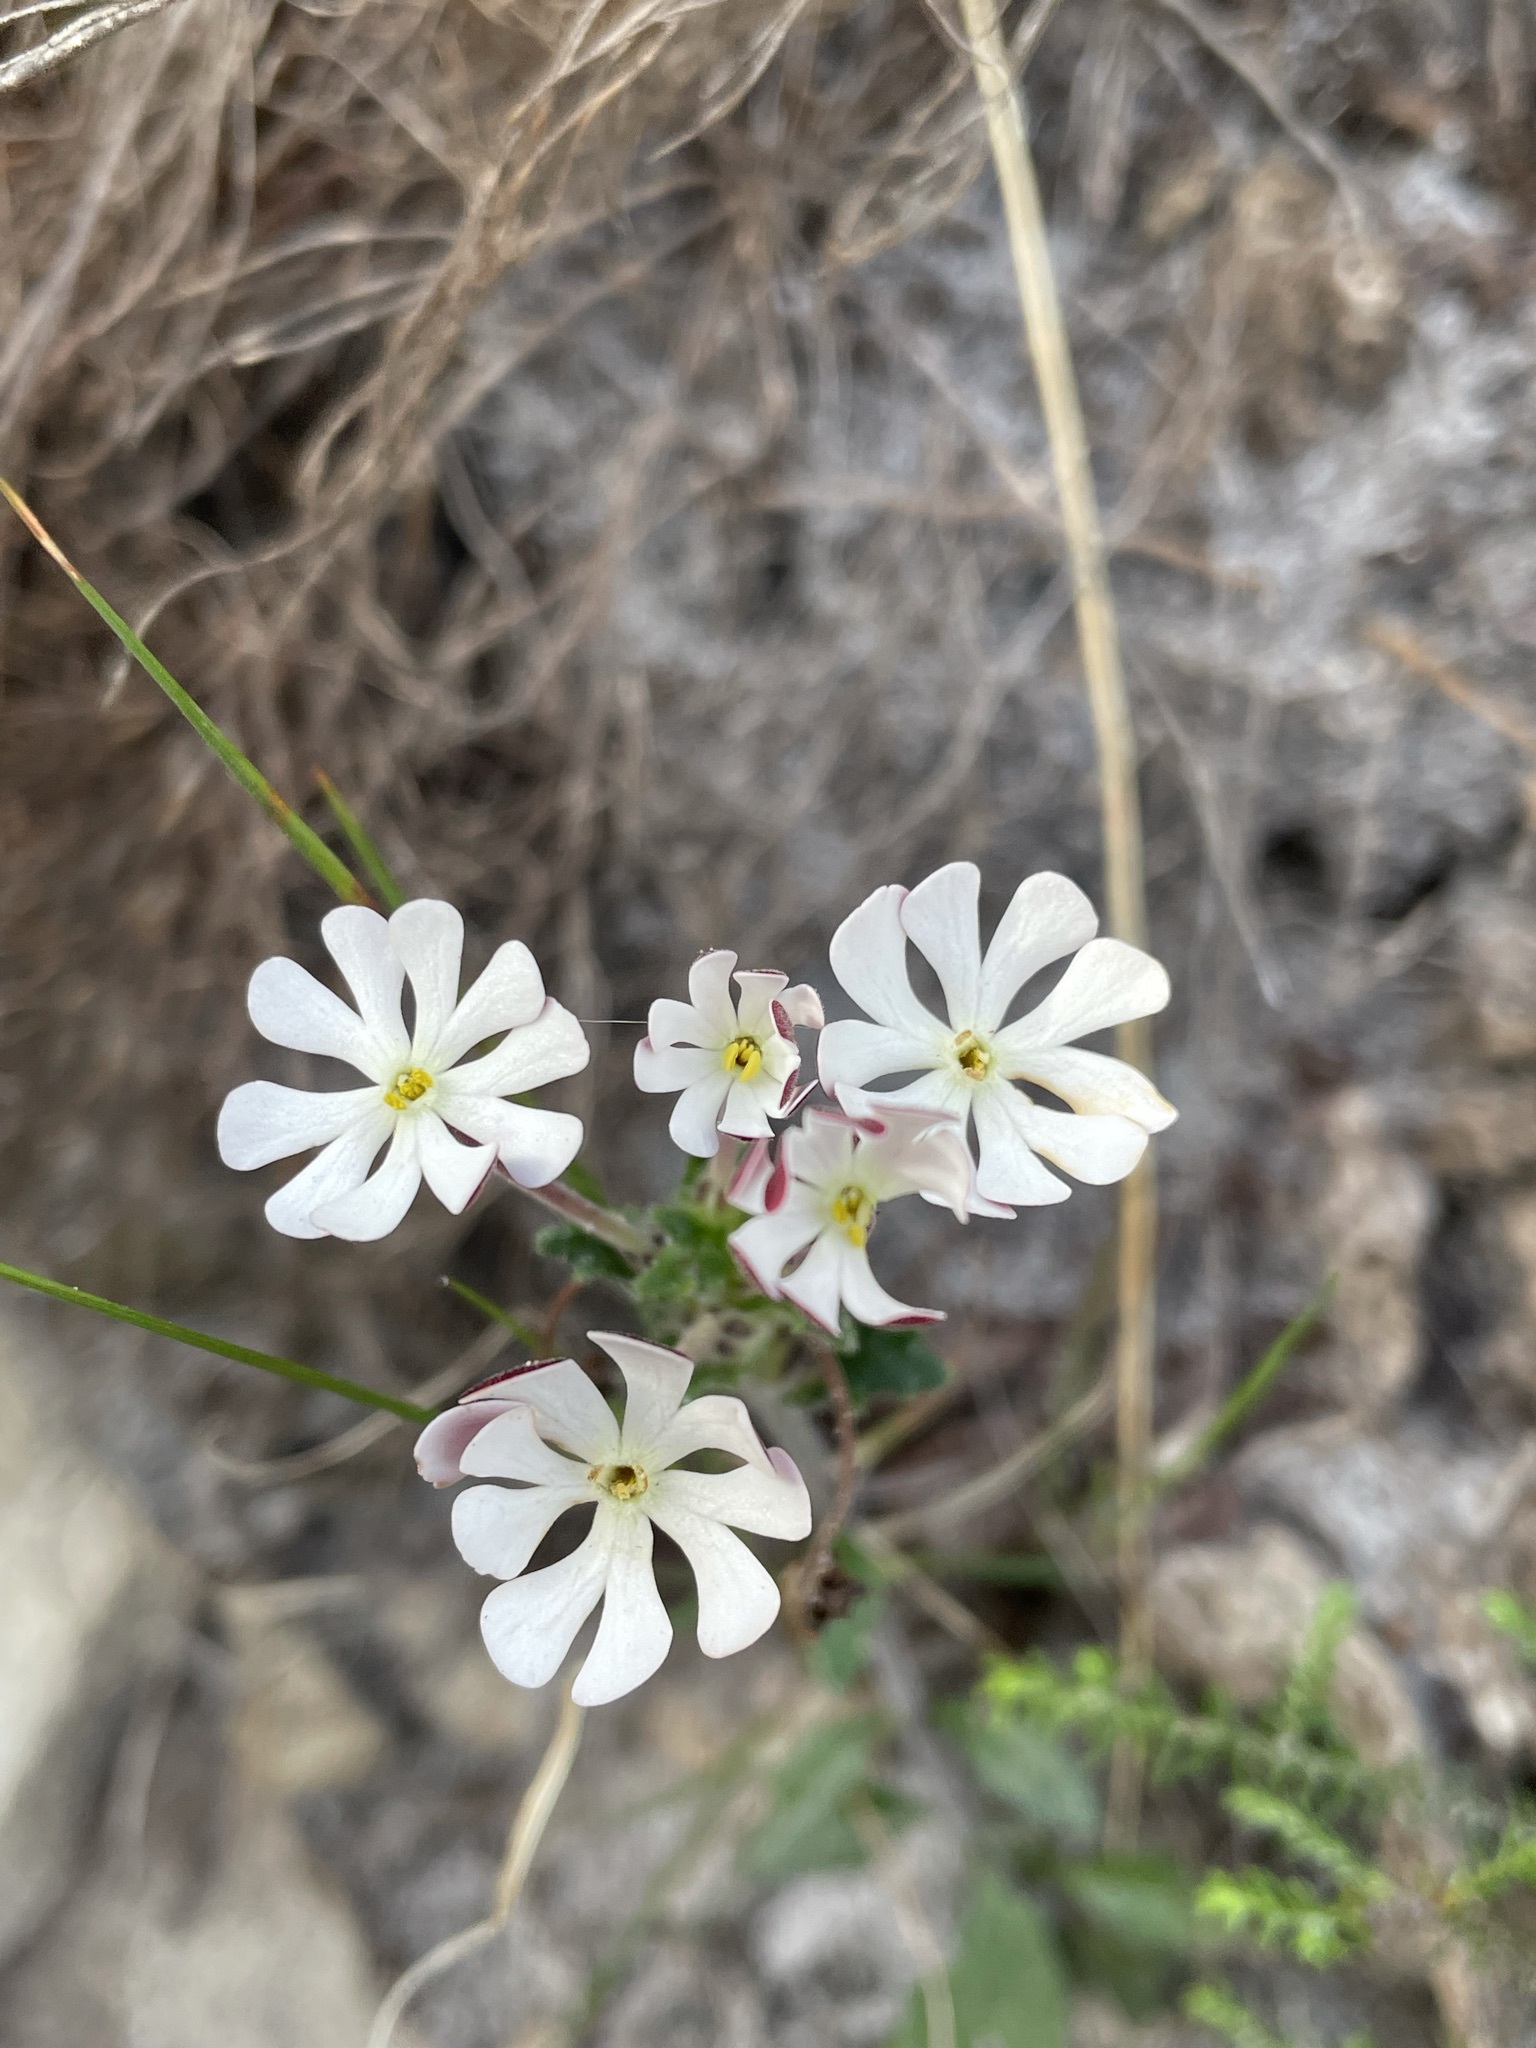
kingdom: Plantae
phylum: Tracheophyta
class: Magnoliopsida
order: Lamiales
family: Scrophulariaceae
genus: Zaluzianskya
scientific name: Zaluzianskya capensis
